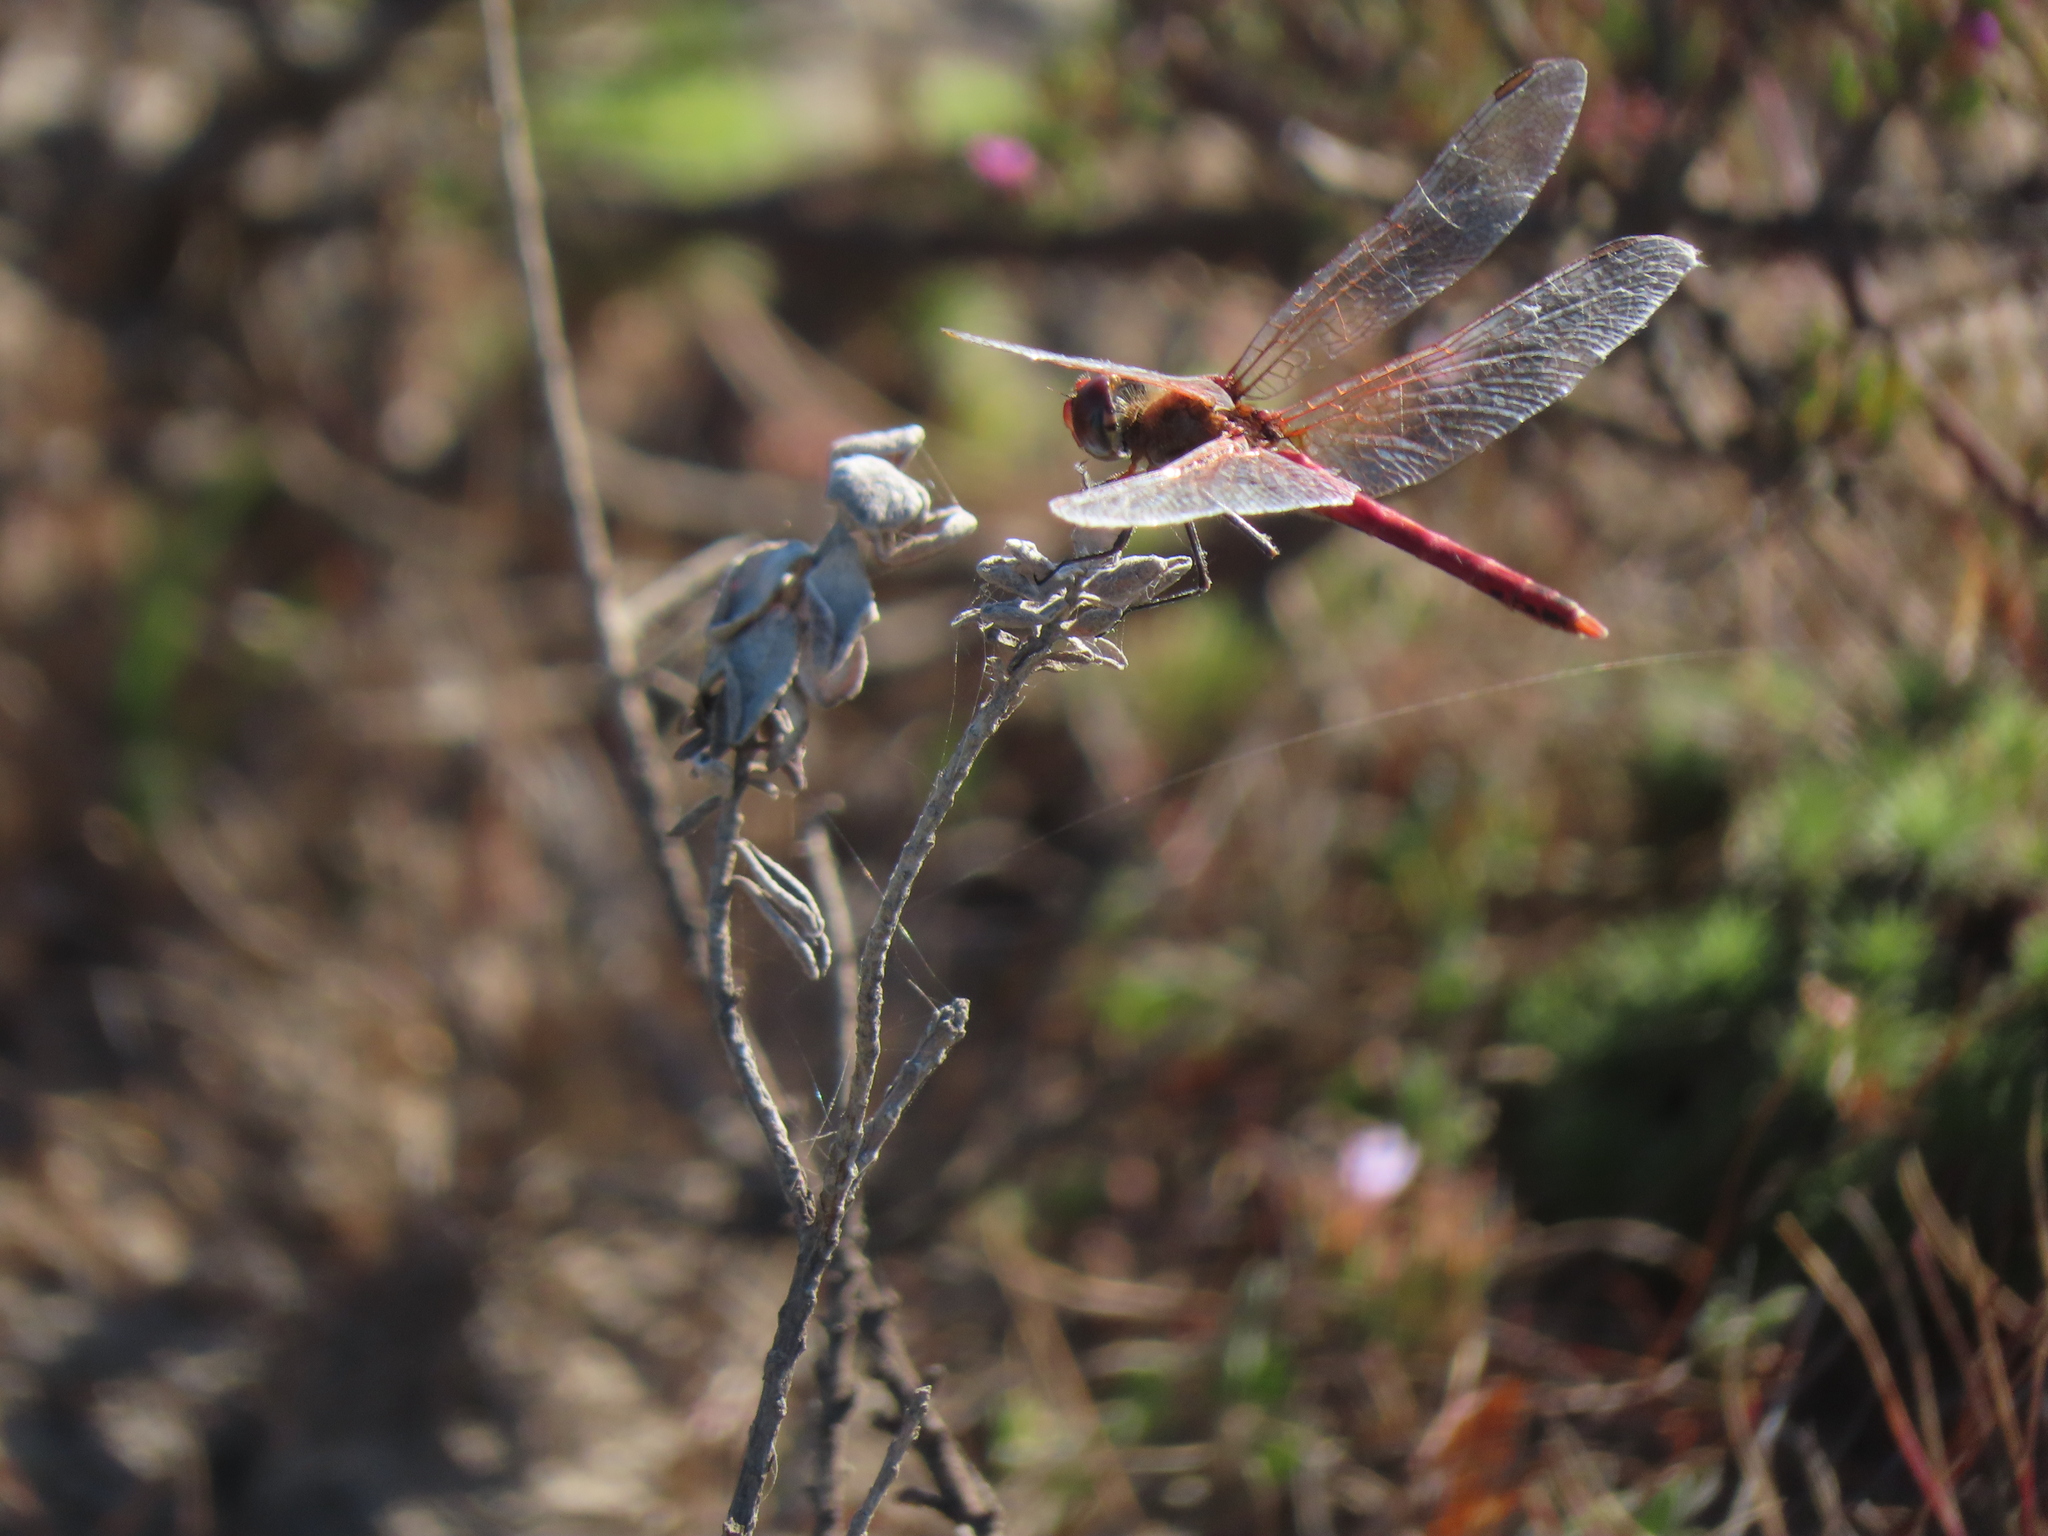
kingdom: Animalia
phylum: Arthropoda
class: Insecta
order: Odonata
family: Libellulidae
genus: Sympetrum
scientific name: Sympetrum fonscolombii
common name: Red-veined darter
